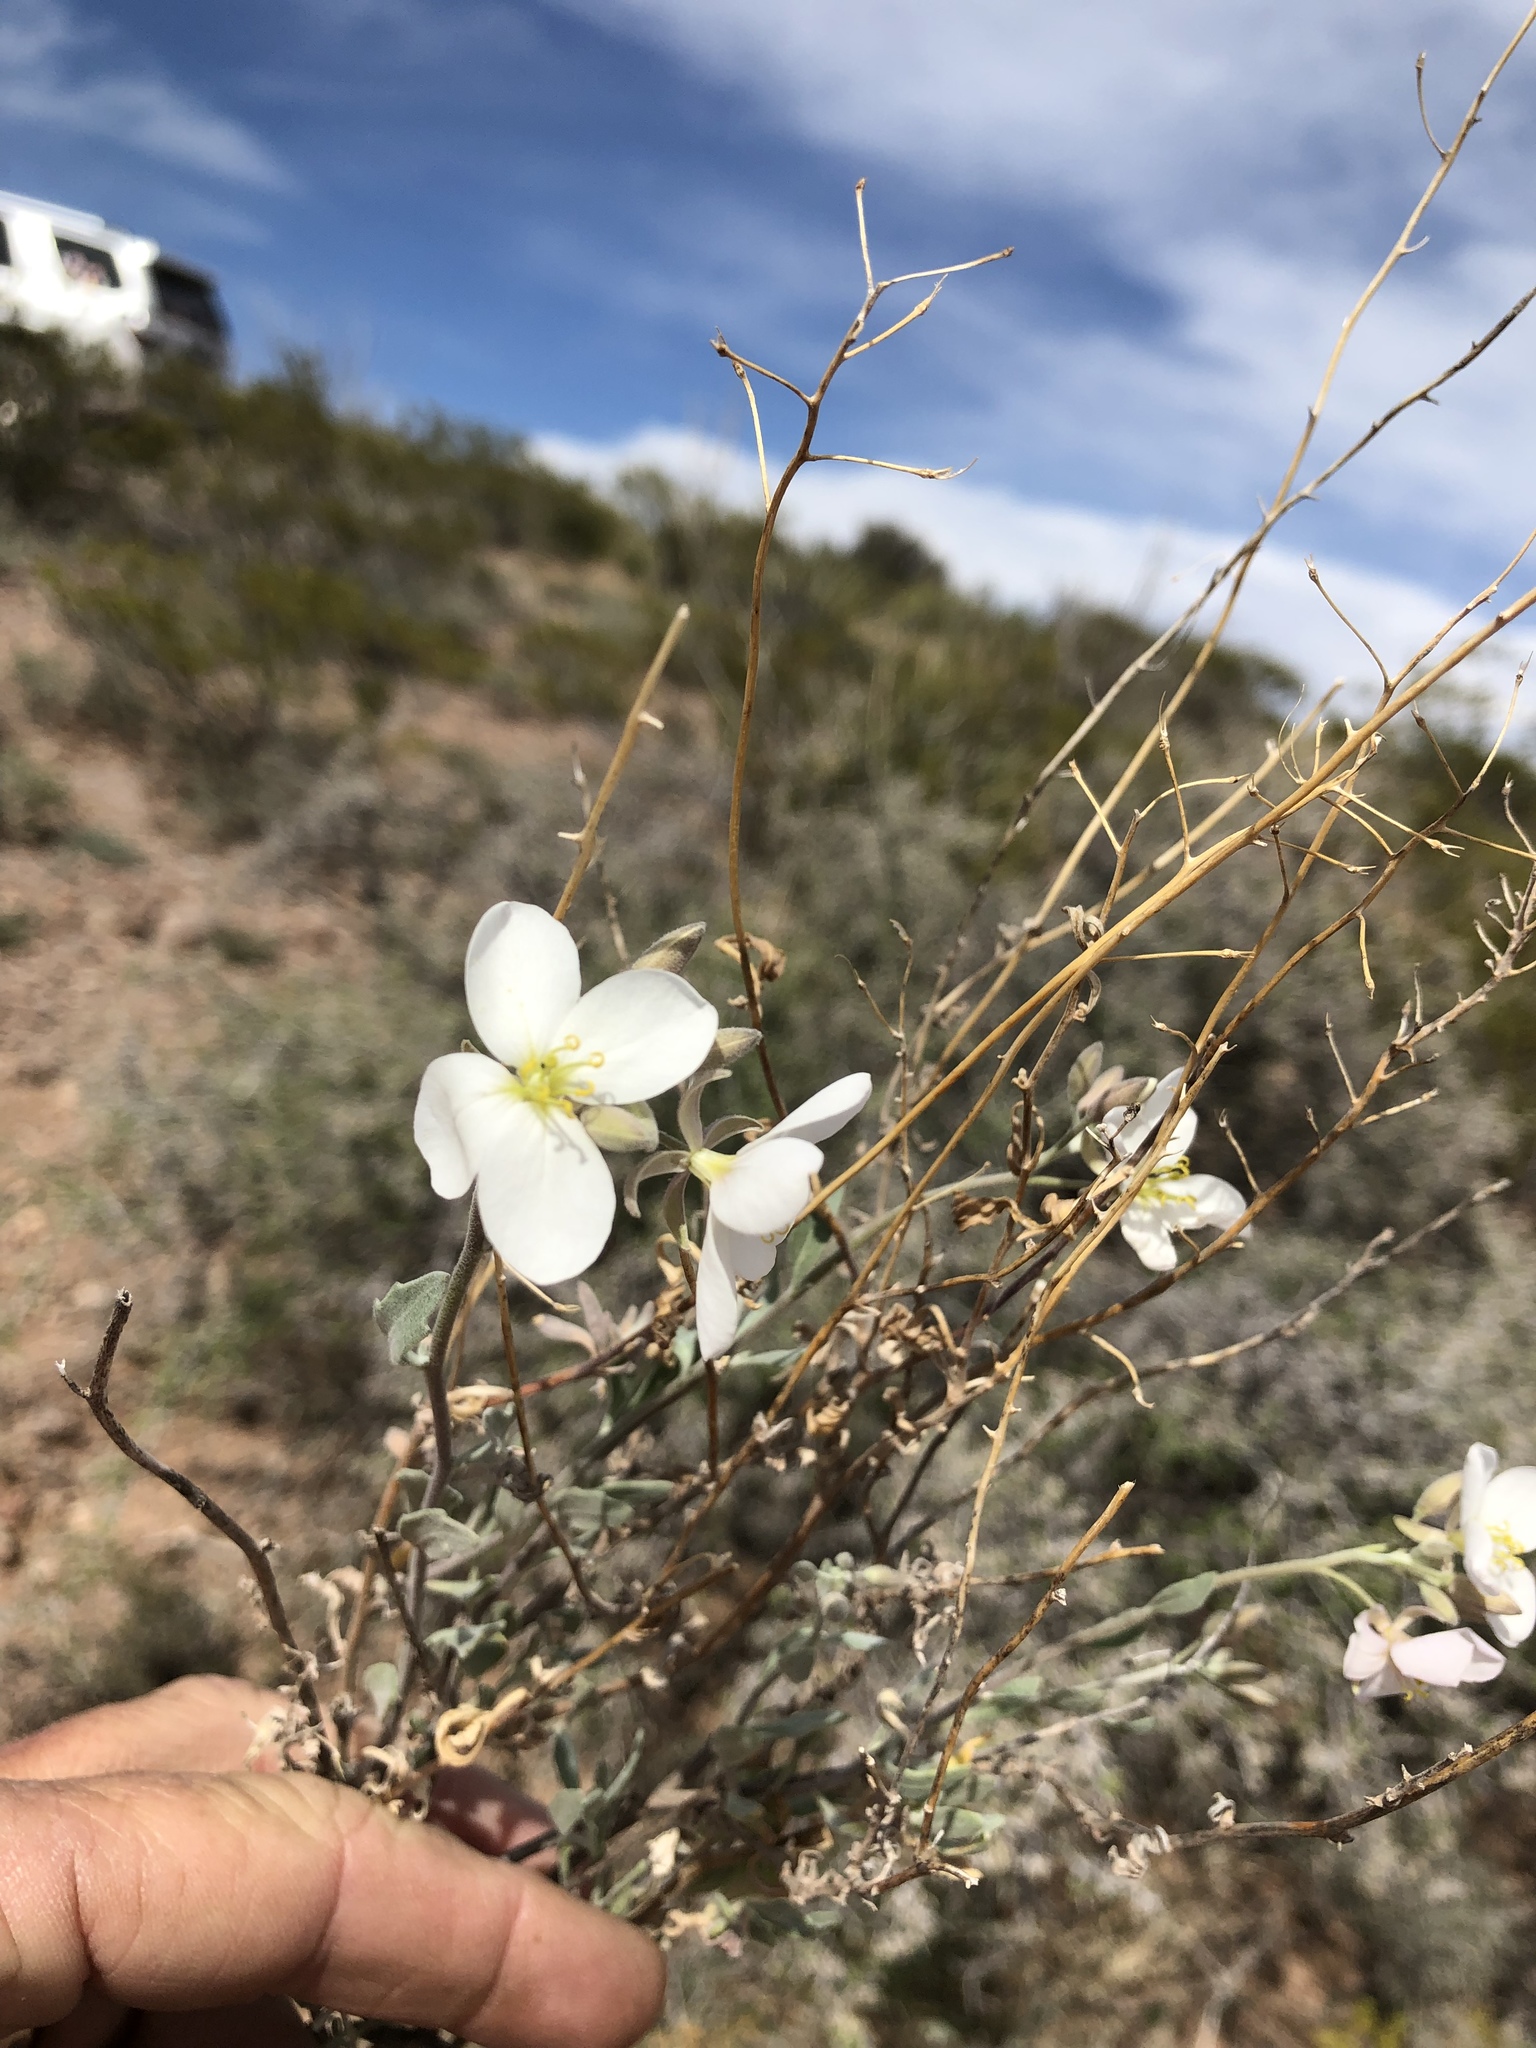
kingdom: Plantae
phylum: Tracheophyta
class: Magnoliopsida
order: Brassicales
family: Brassicaceae
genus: Nerisyrenia
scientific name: Nerisyrenia camporum
